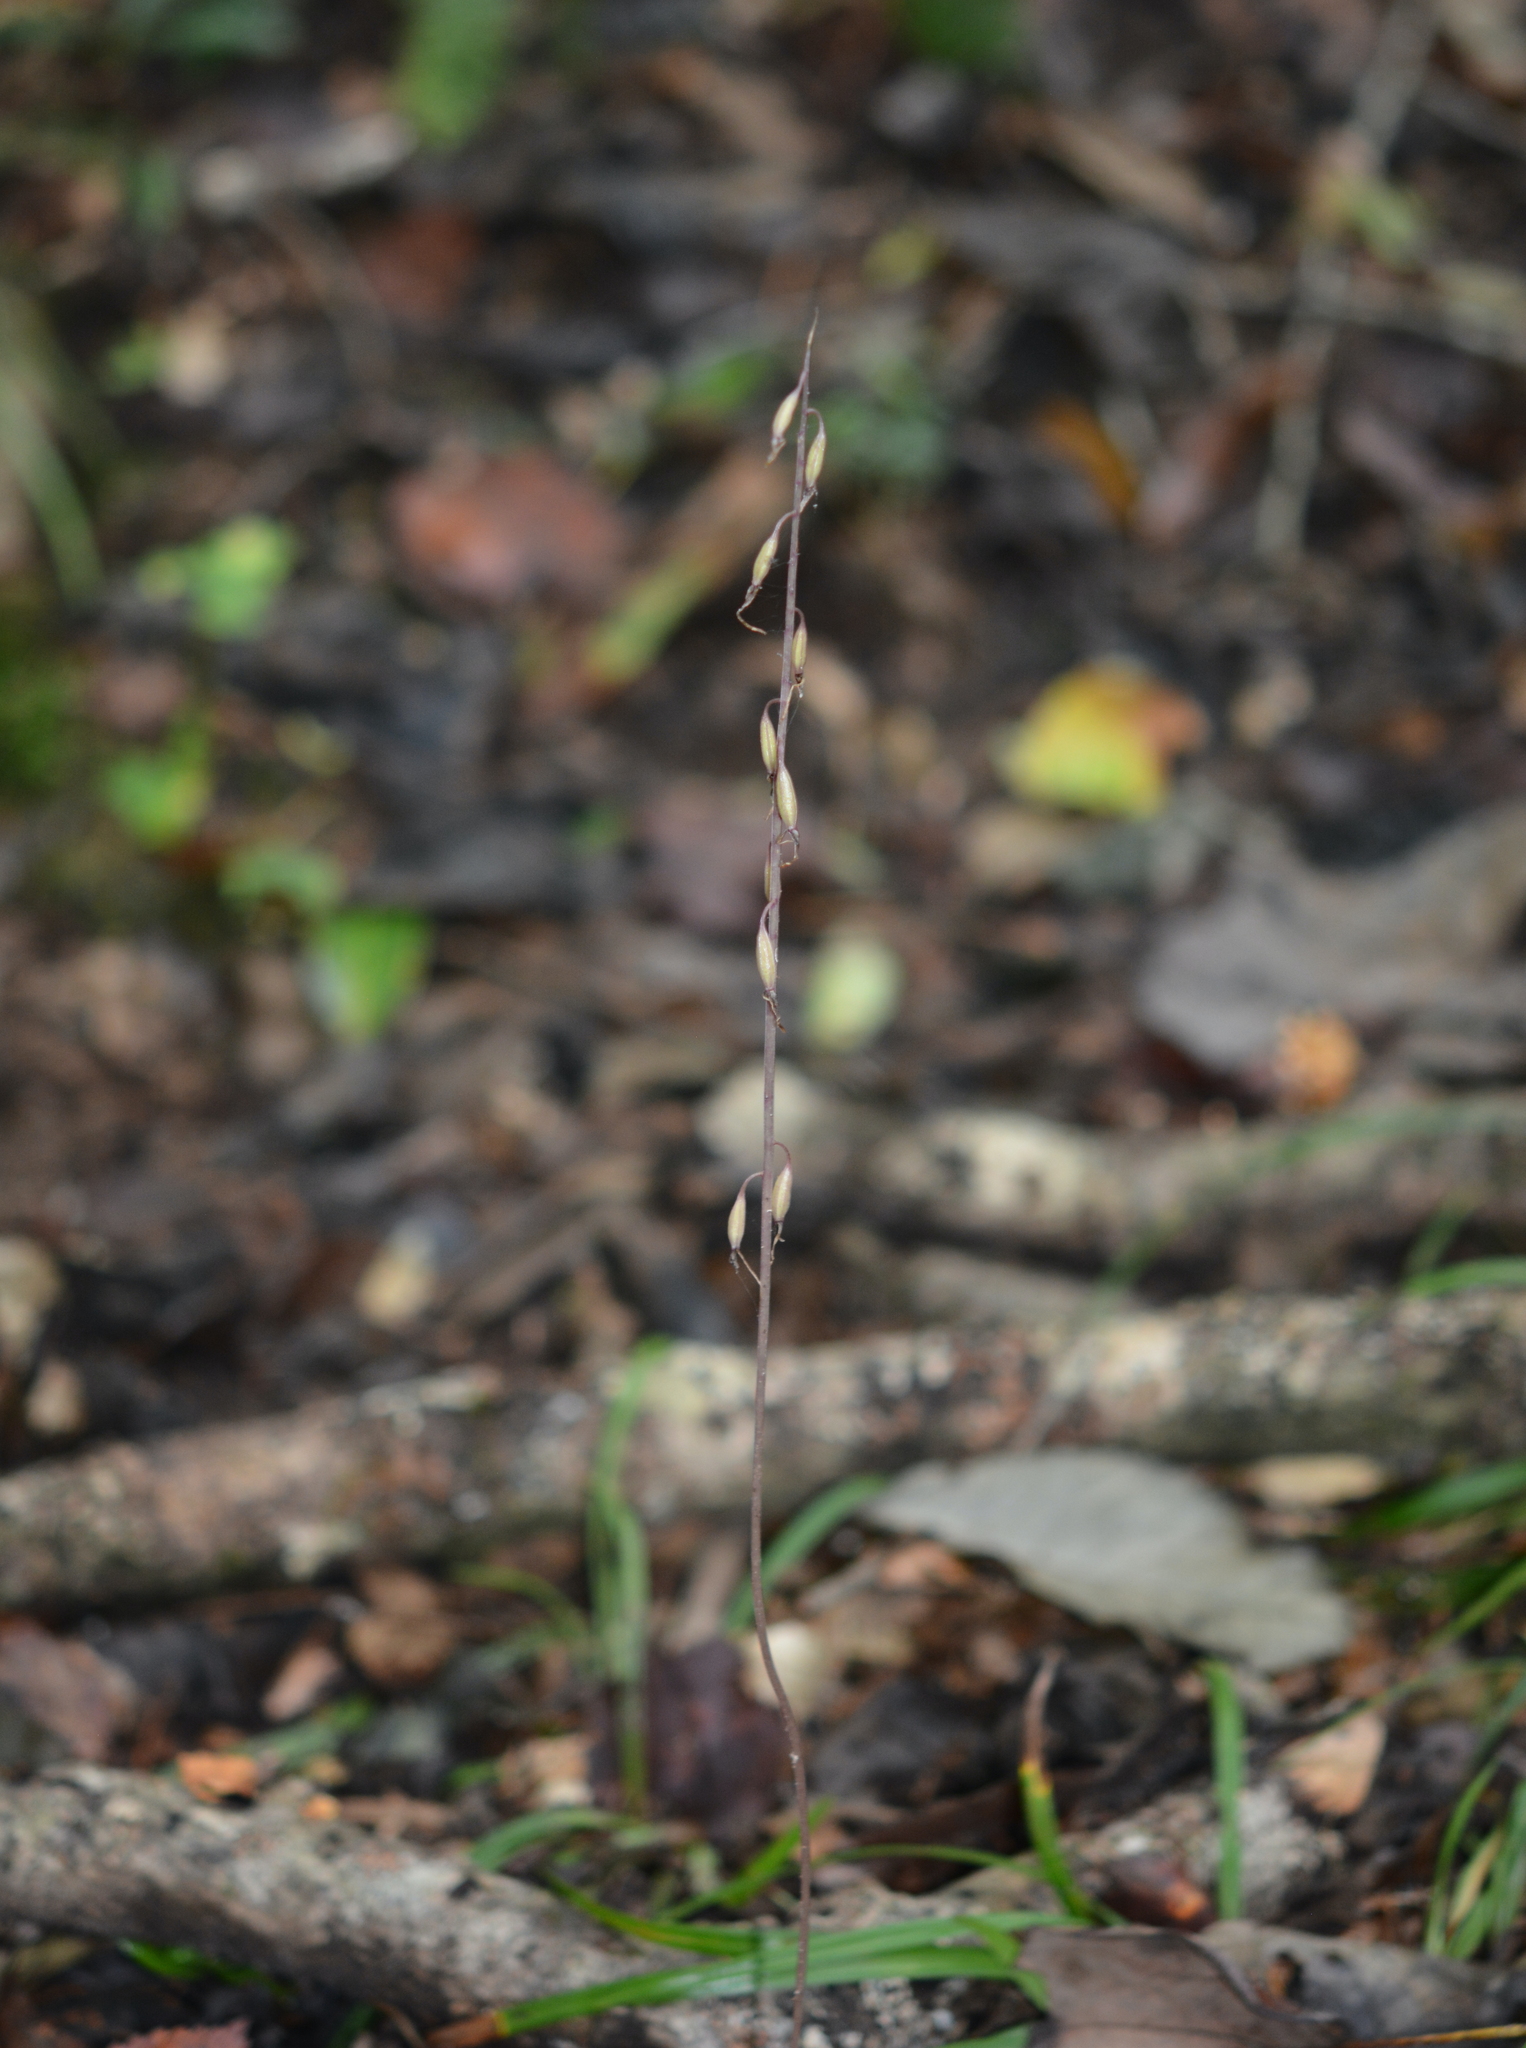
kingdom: Plantae
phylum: Tracheophyta
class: Liliopsida
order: Asparagales
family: Orchidaceae
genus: Tipularia
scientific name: Tipularia discolor
